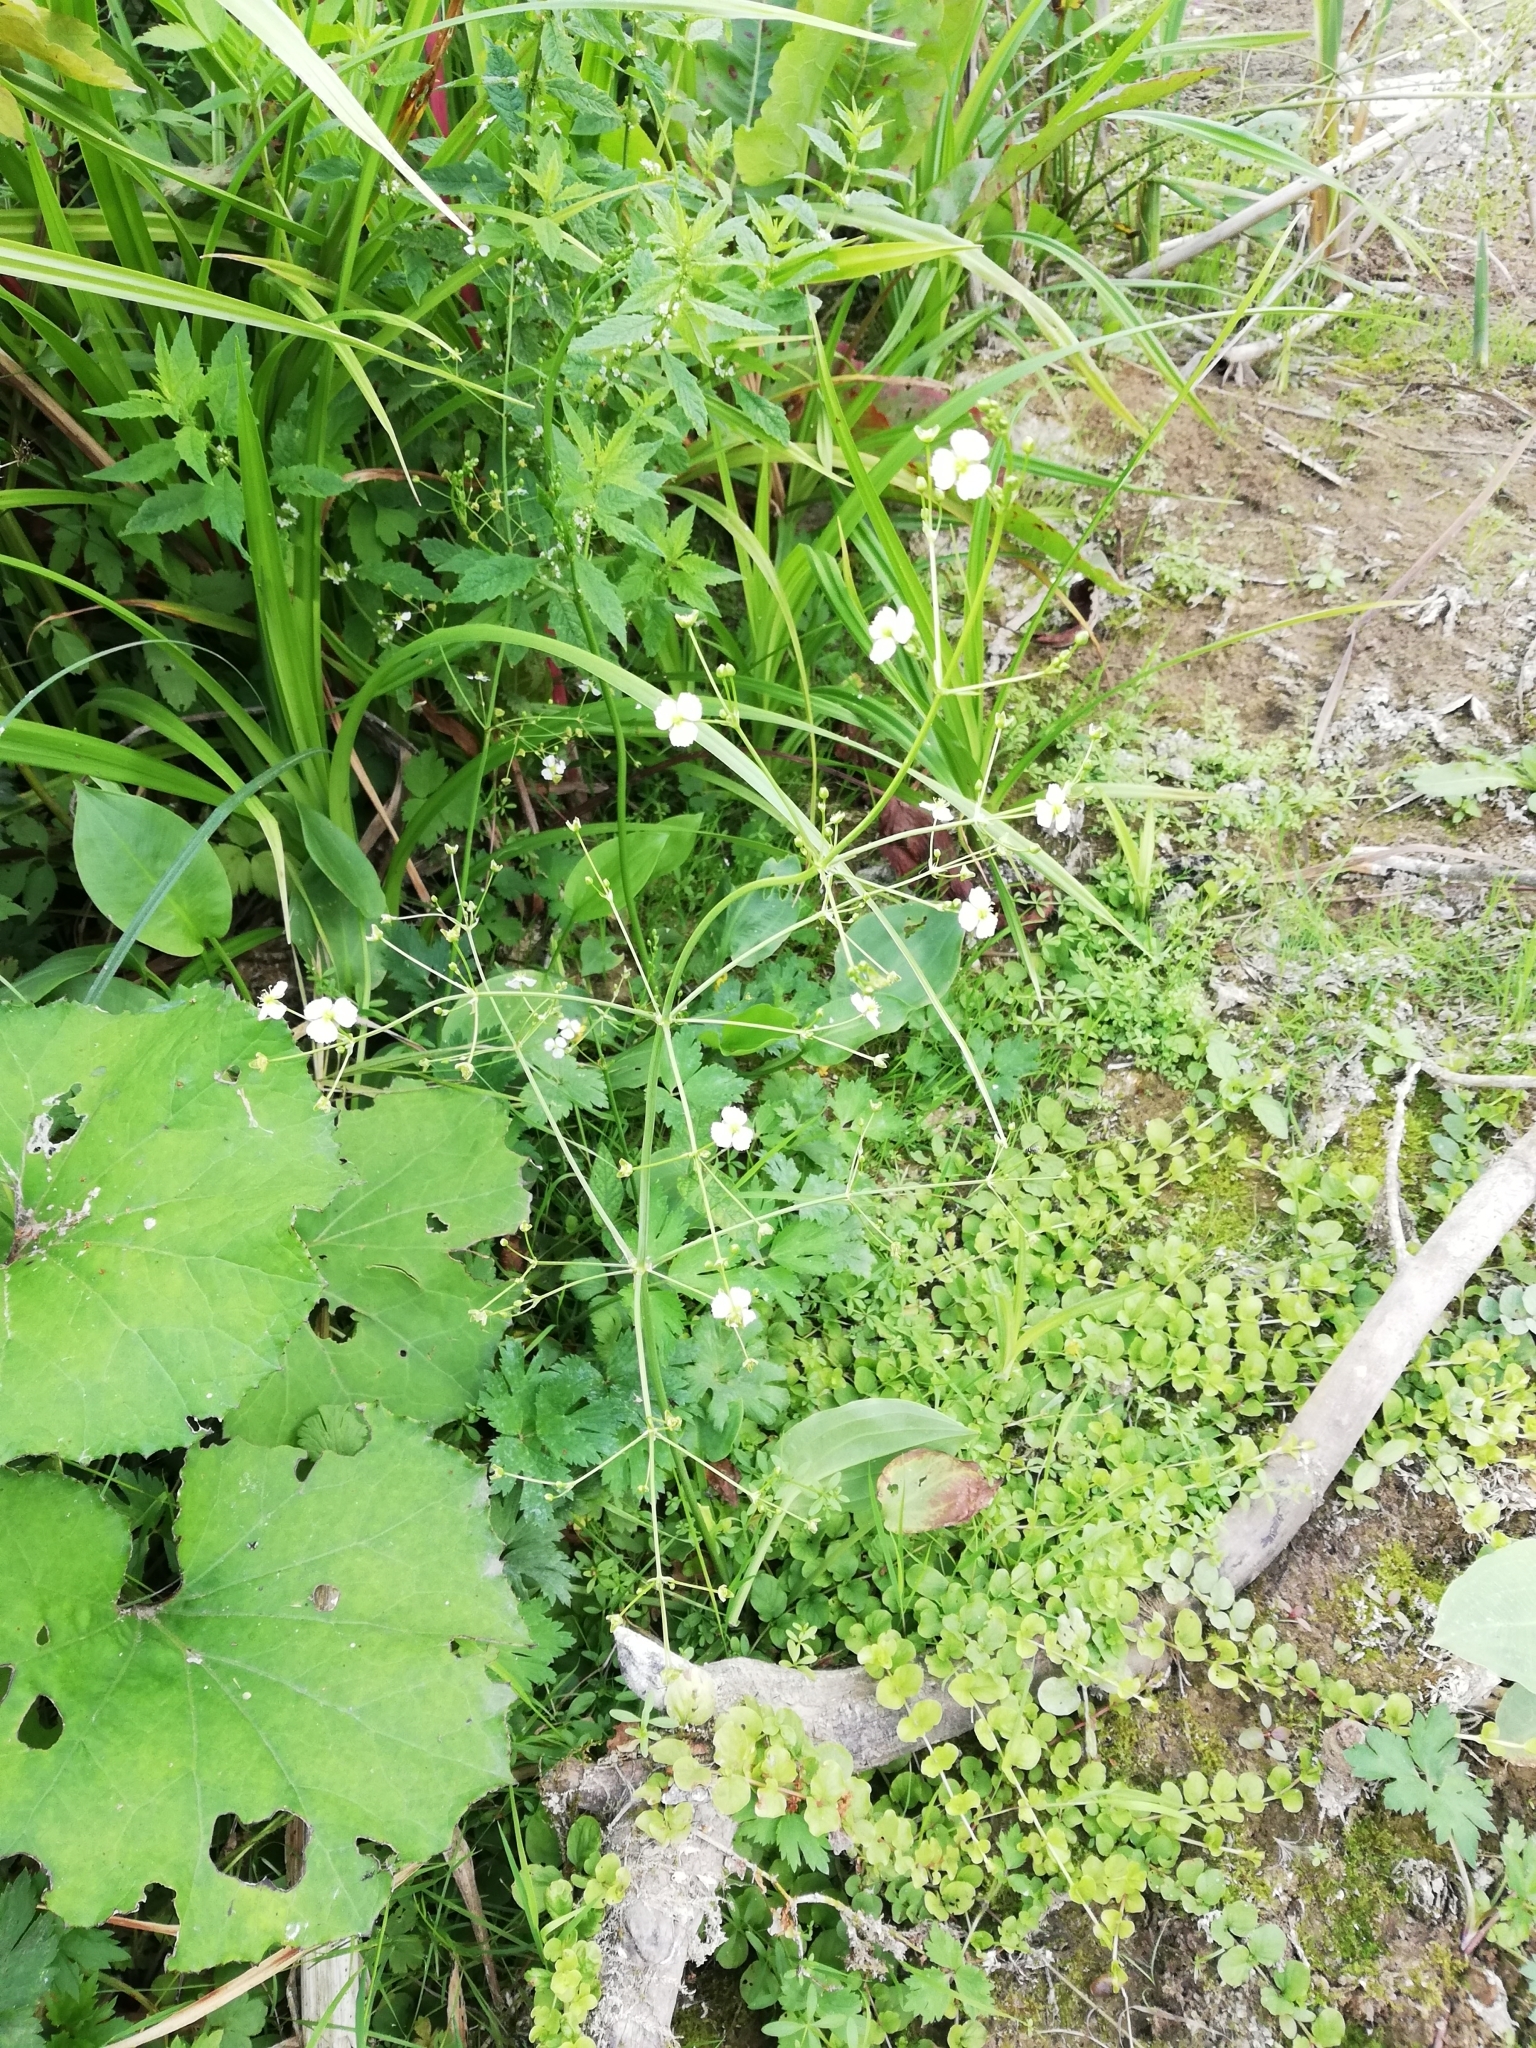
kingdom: Plantae
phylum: Tracheophyta
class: Magnoliopsida
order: Gentianales
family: Rubiaceae
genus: Galium
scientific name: Galium palustre
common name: Common marsh-bedstraw
